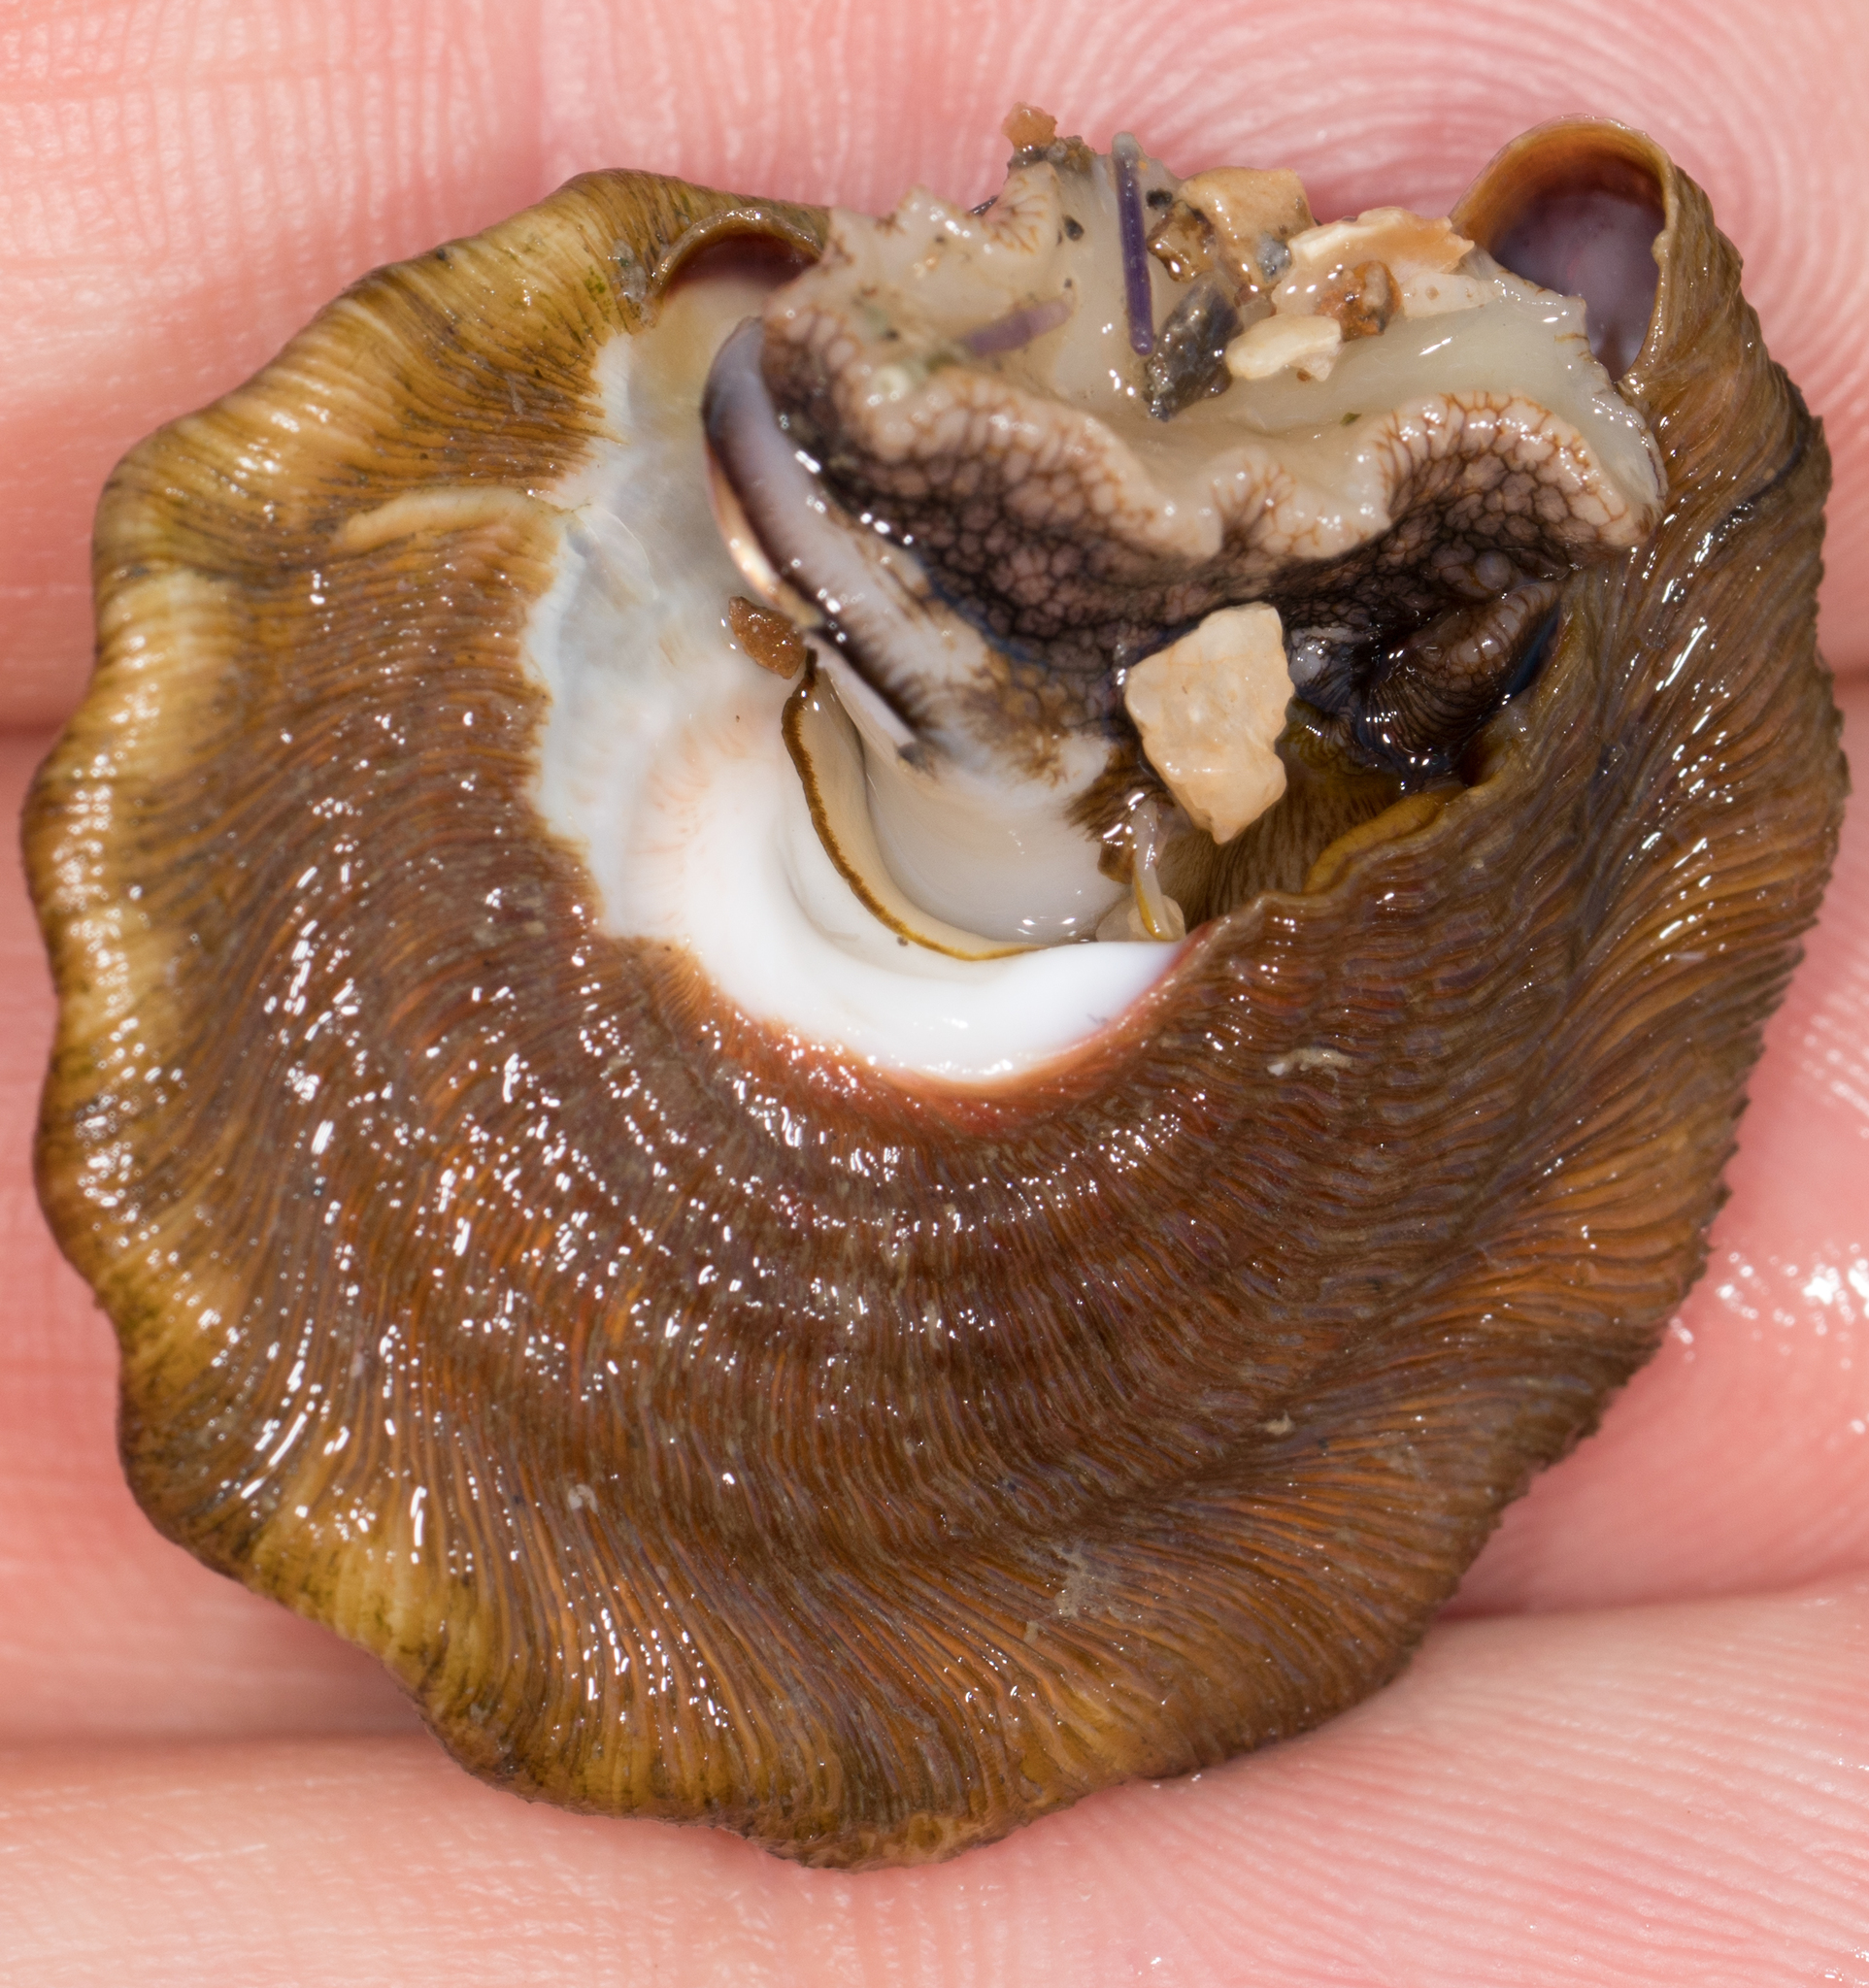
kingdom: Animalia
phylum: Mollusca
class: Gastropoda
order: Trochida
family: Turbinidae
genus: Megastraea
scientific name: Megastraea undosa
